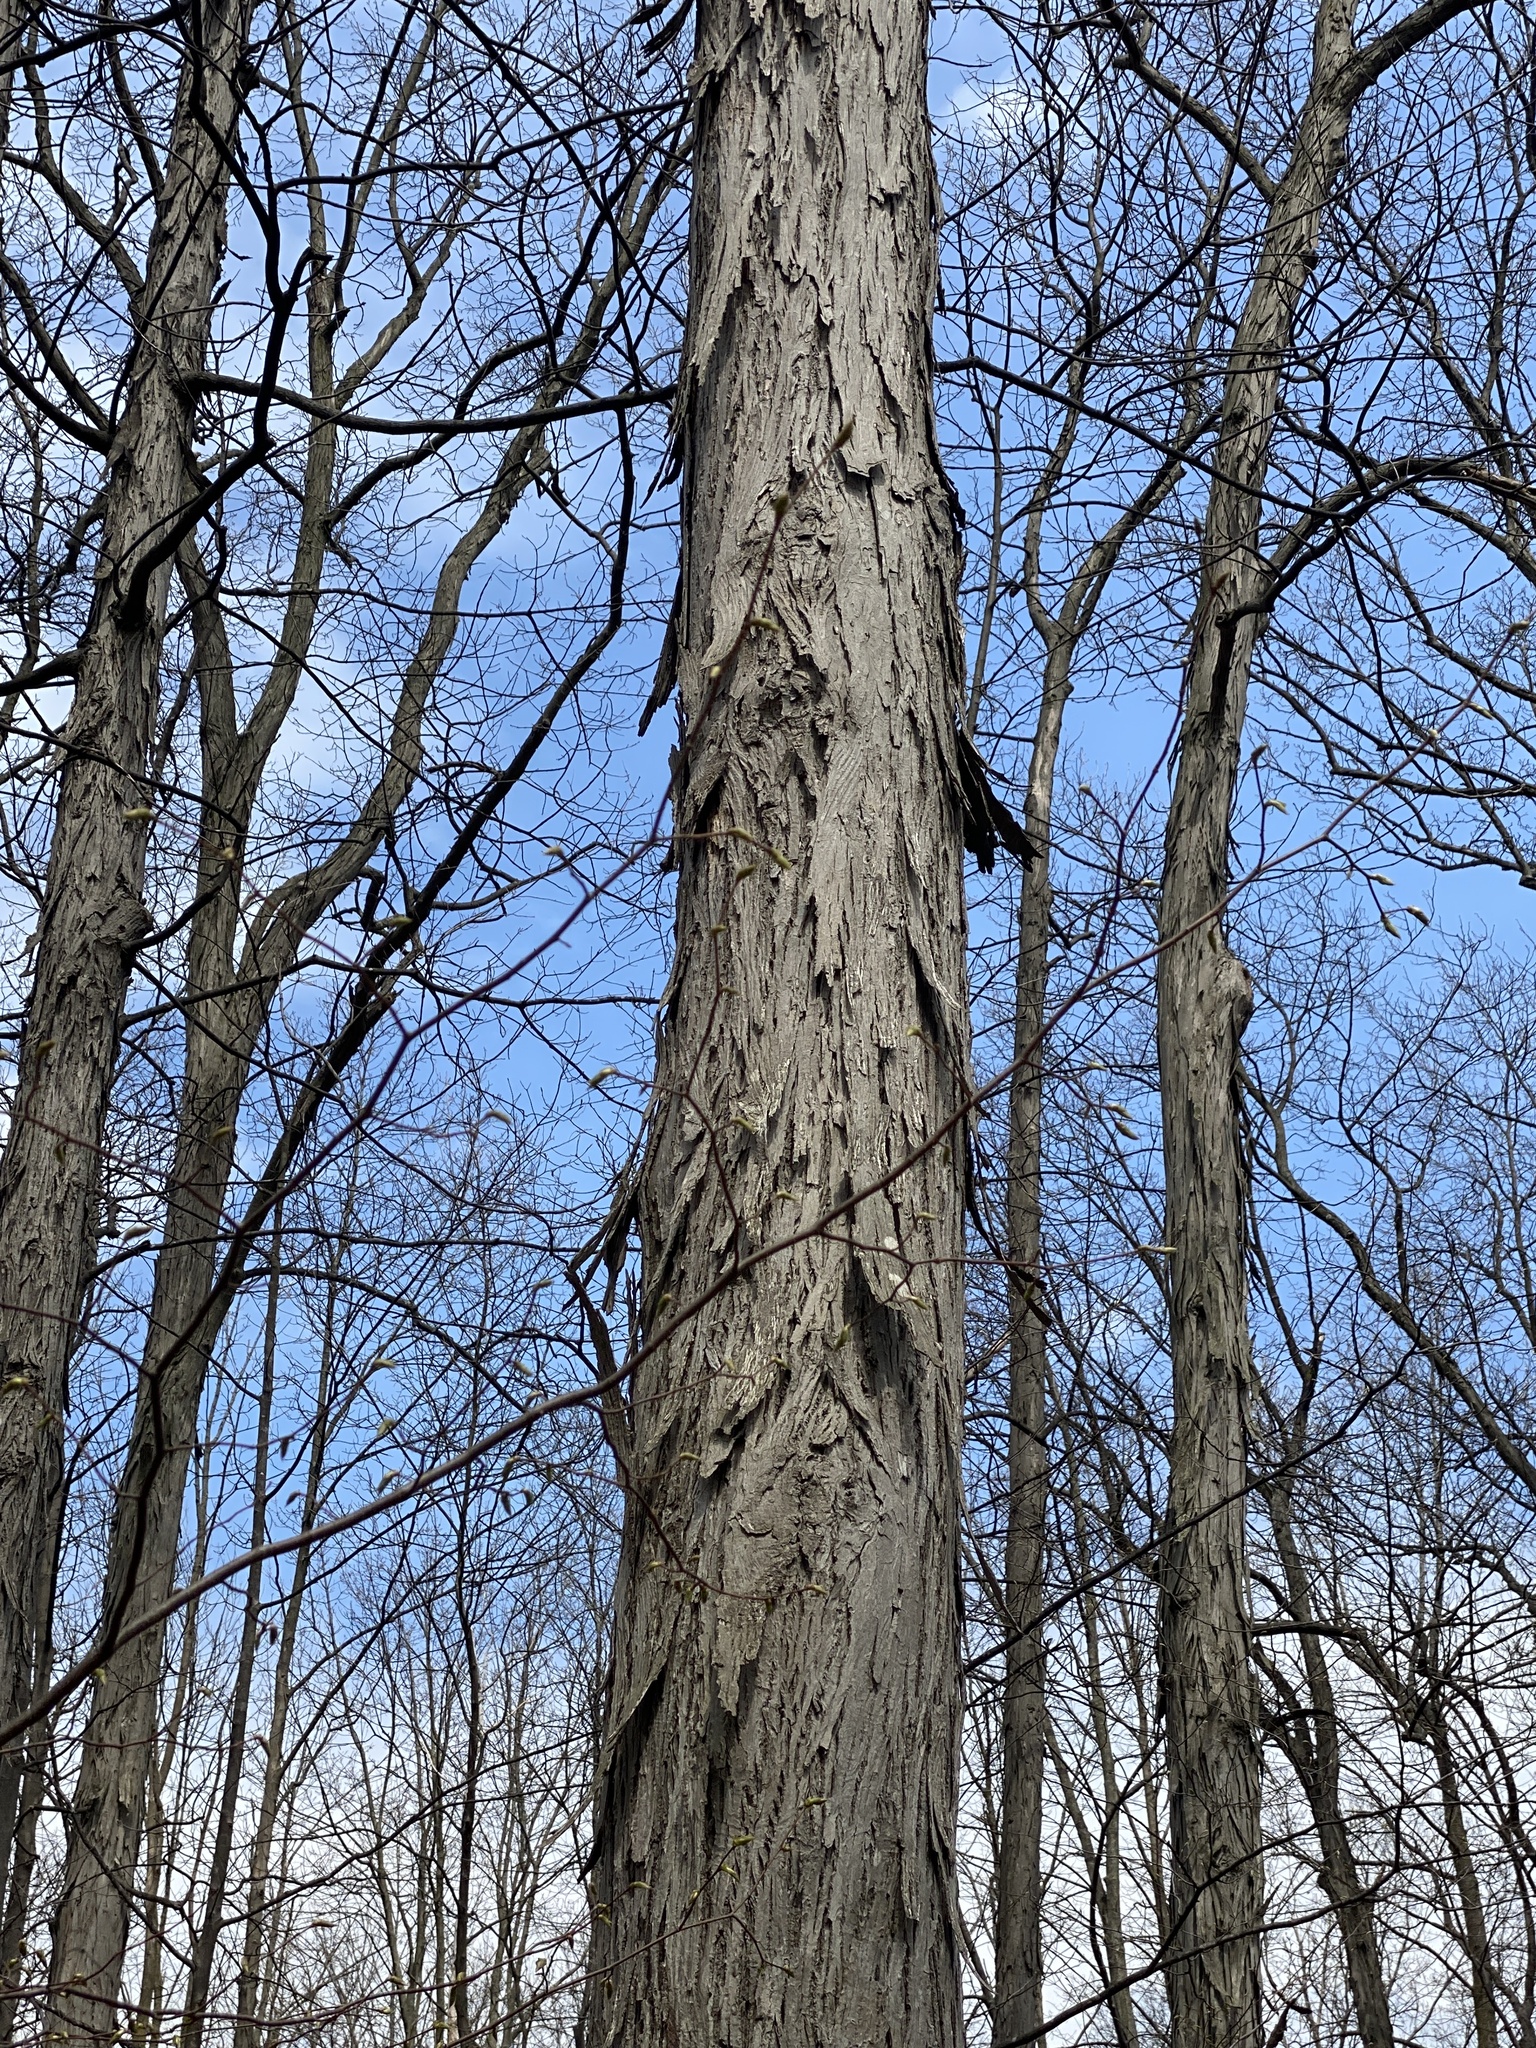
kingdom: Plantae
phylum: Tracheophyta
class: Magnoliopsida
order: Fagales
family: Juglandaceae
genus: Carya
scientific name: Carya ovata
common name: Shagbark hickory
